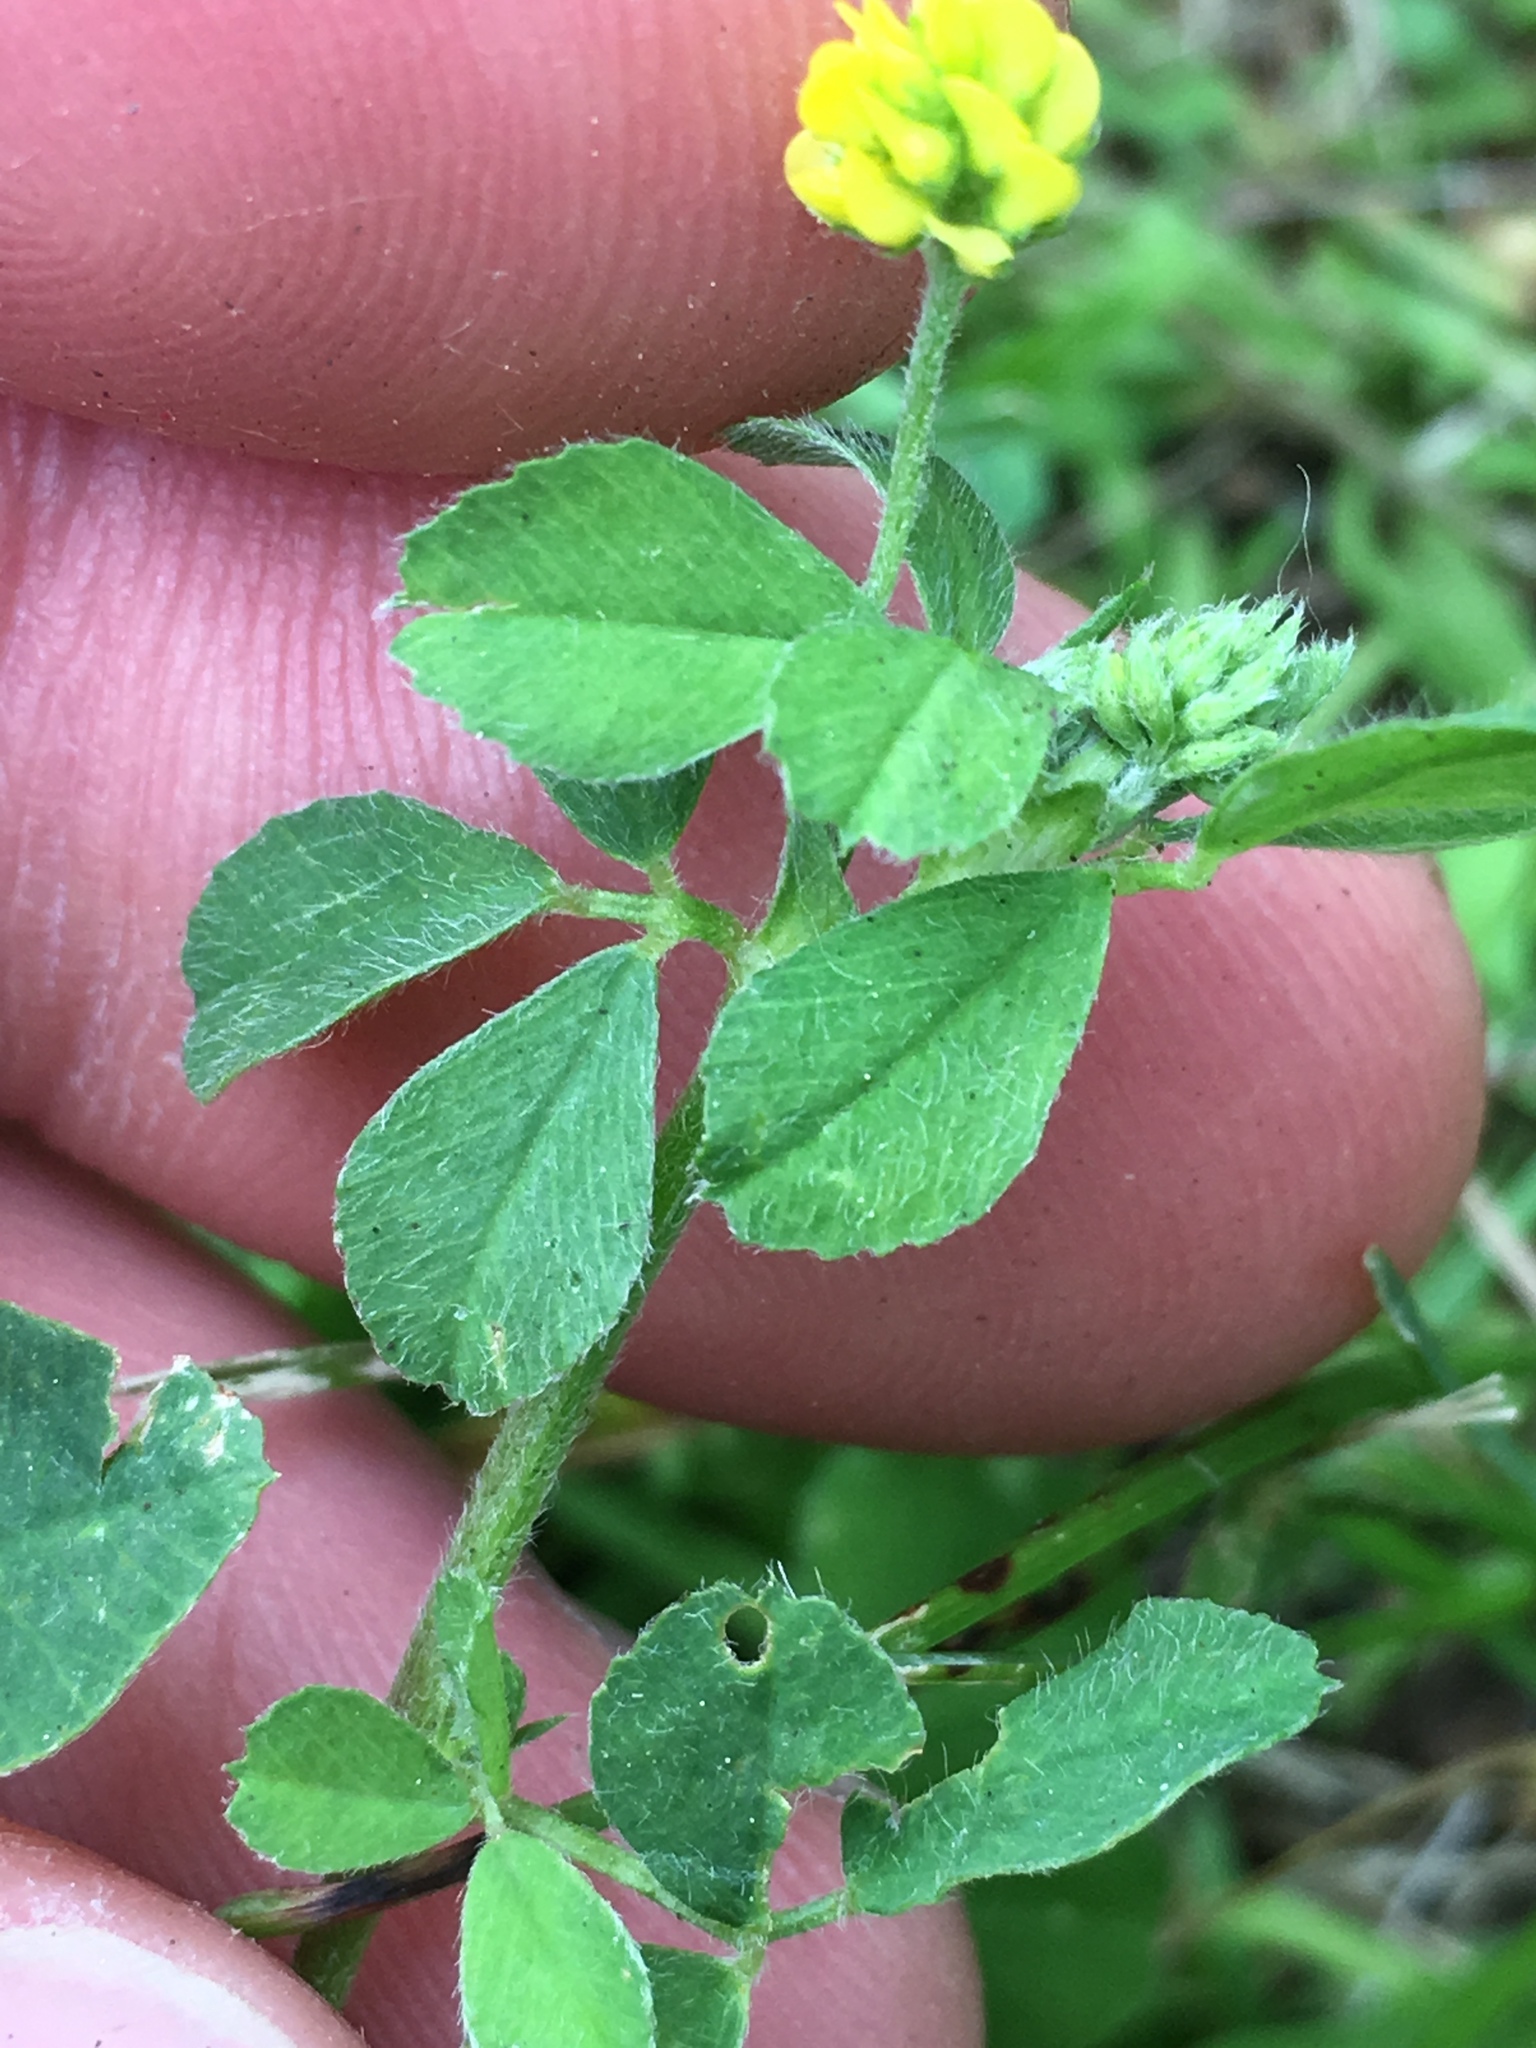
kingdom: Plantae
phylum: Tracheophyta
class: Magnoliopsida
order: Fabales
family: Fabaceae
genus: Medicago
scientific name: Medicago lupulina
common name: Black medick
